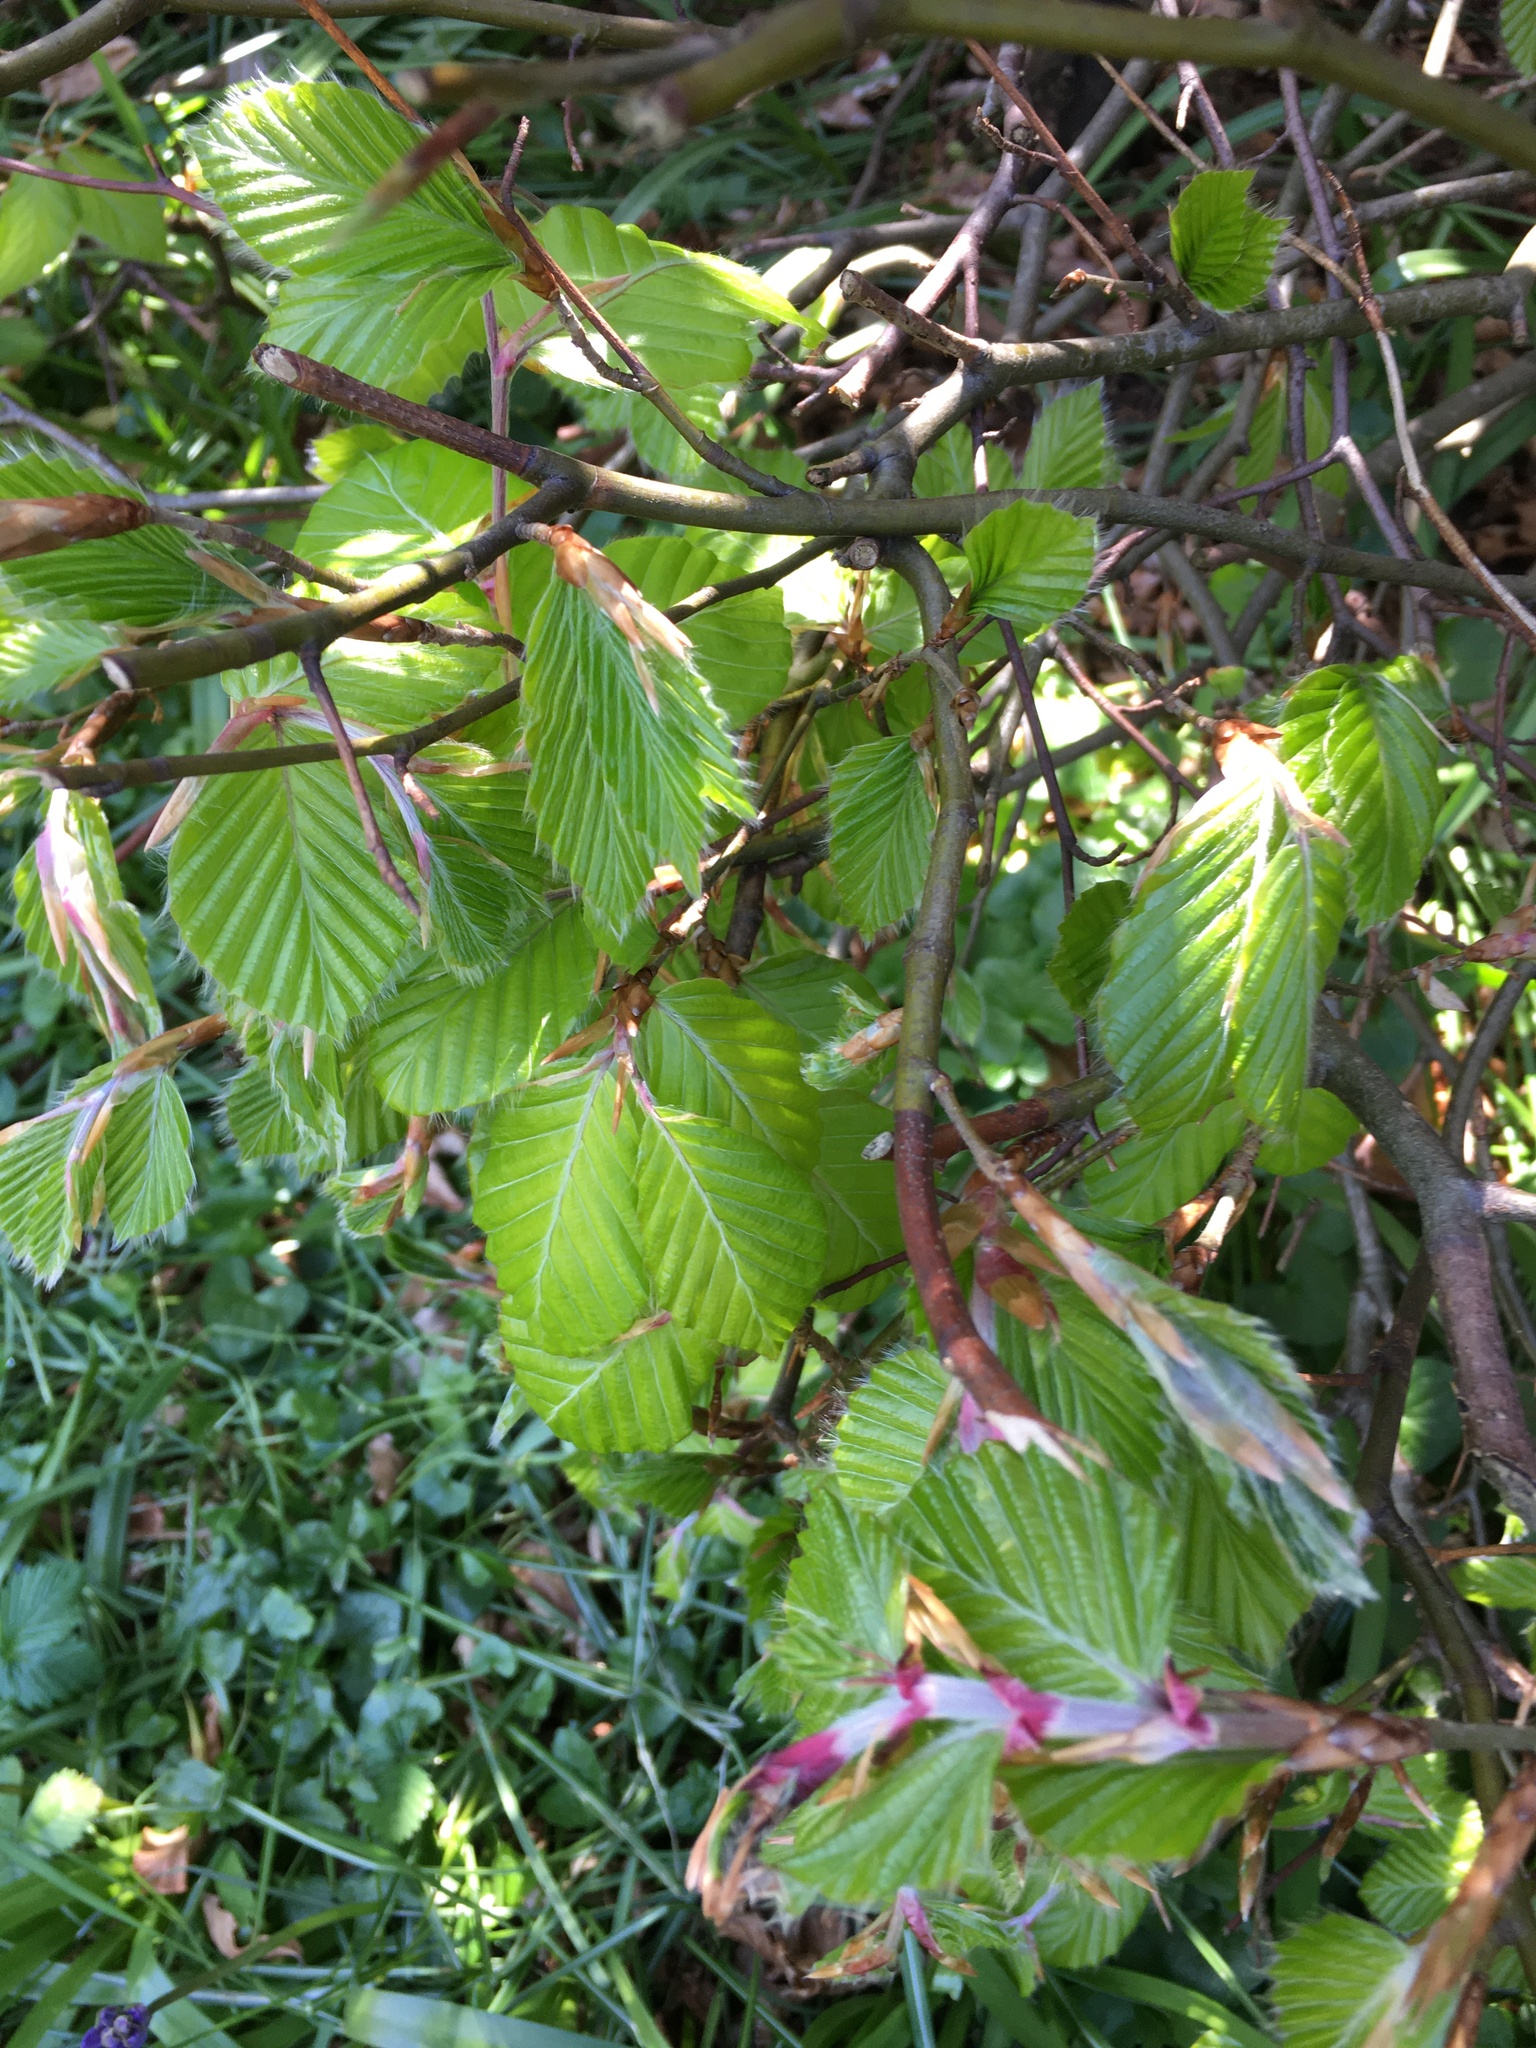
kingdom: Plantae
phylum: Tracheophyta
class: Magnoliopsida
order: Fagales
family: Fagaceae
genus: Fagus
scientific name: Fagus sylvatica
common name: Beech
